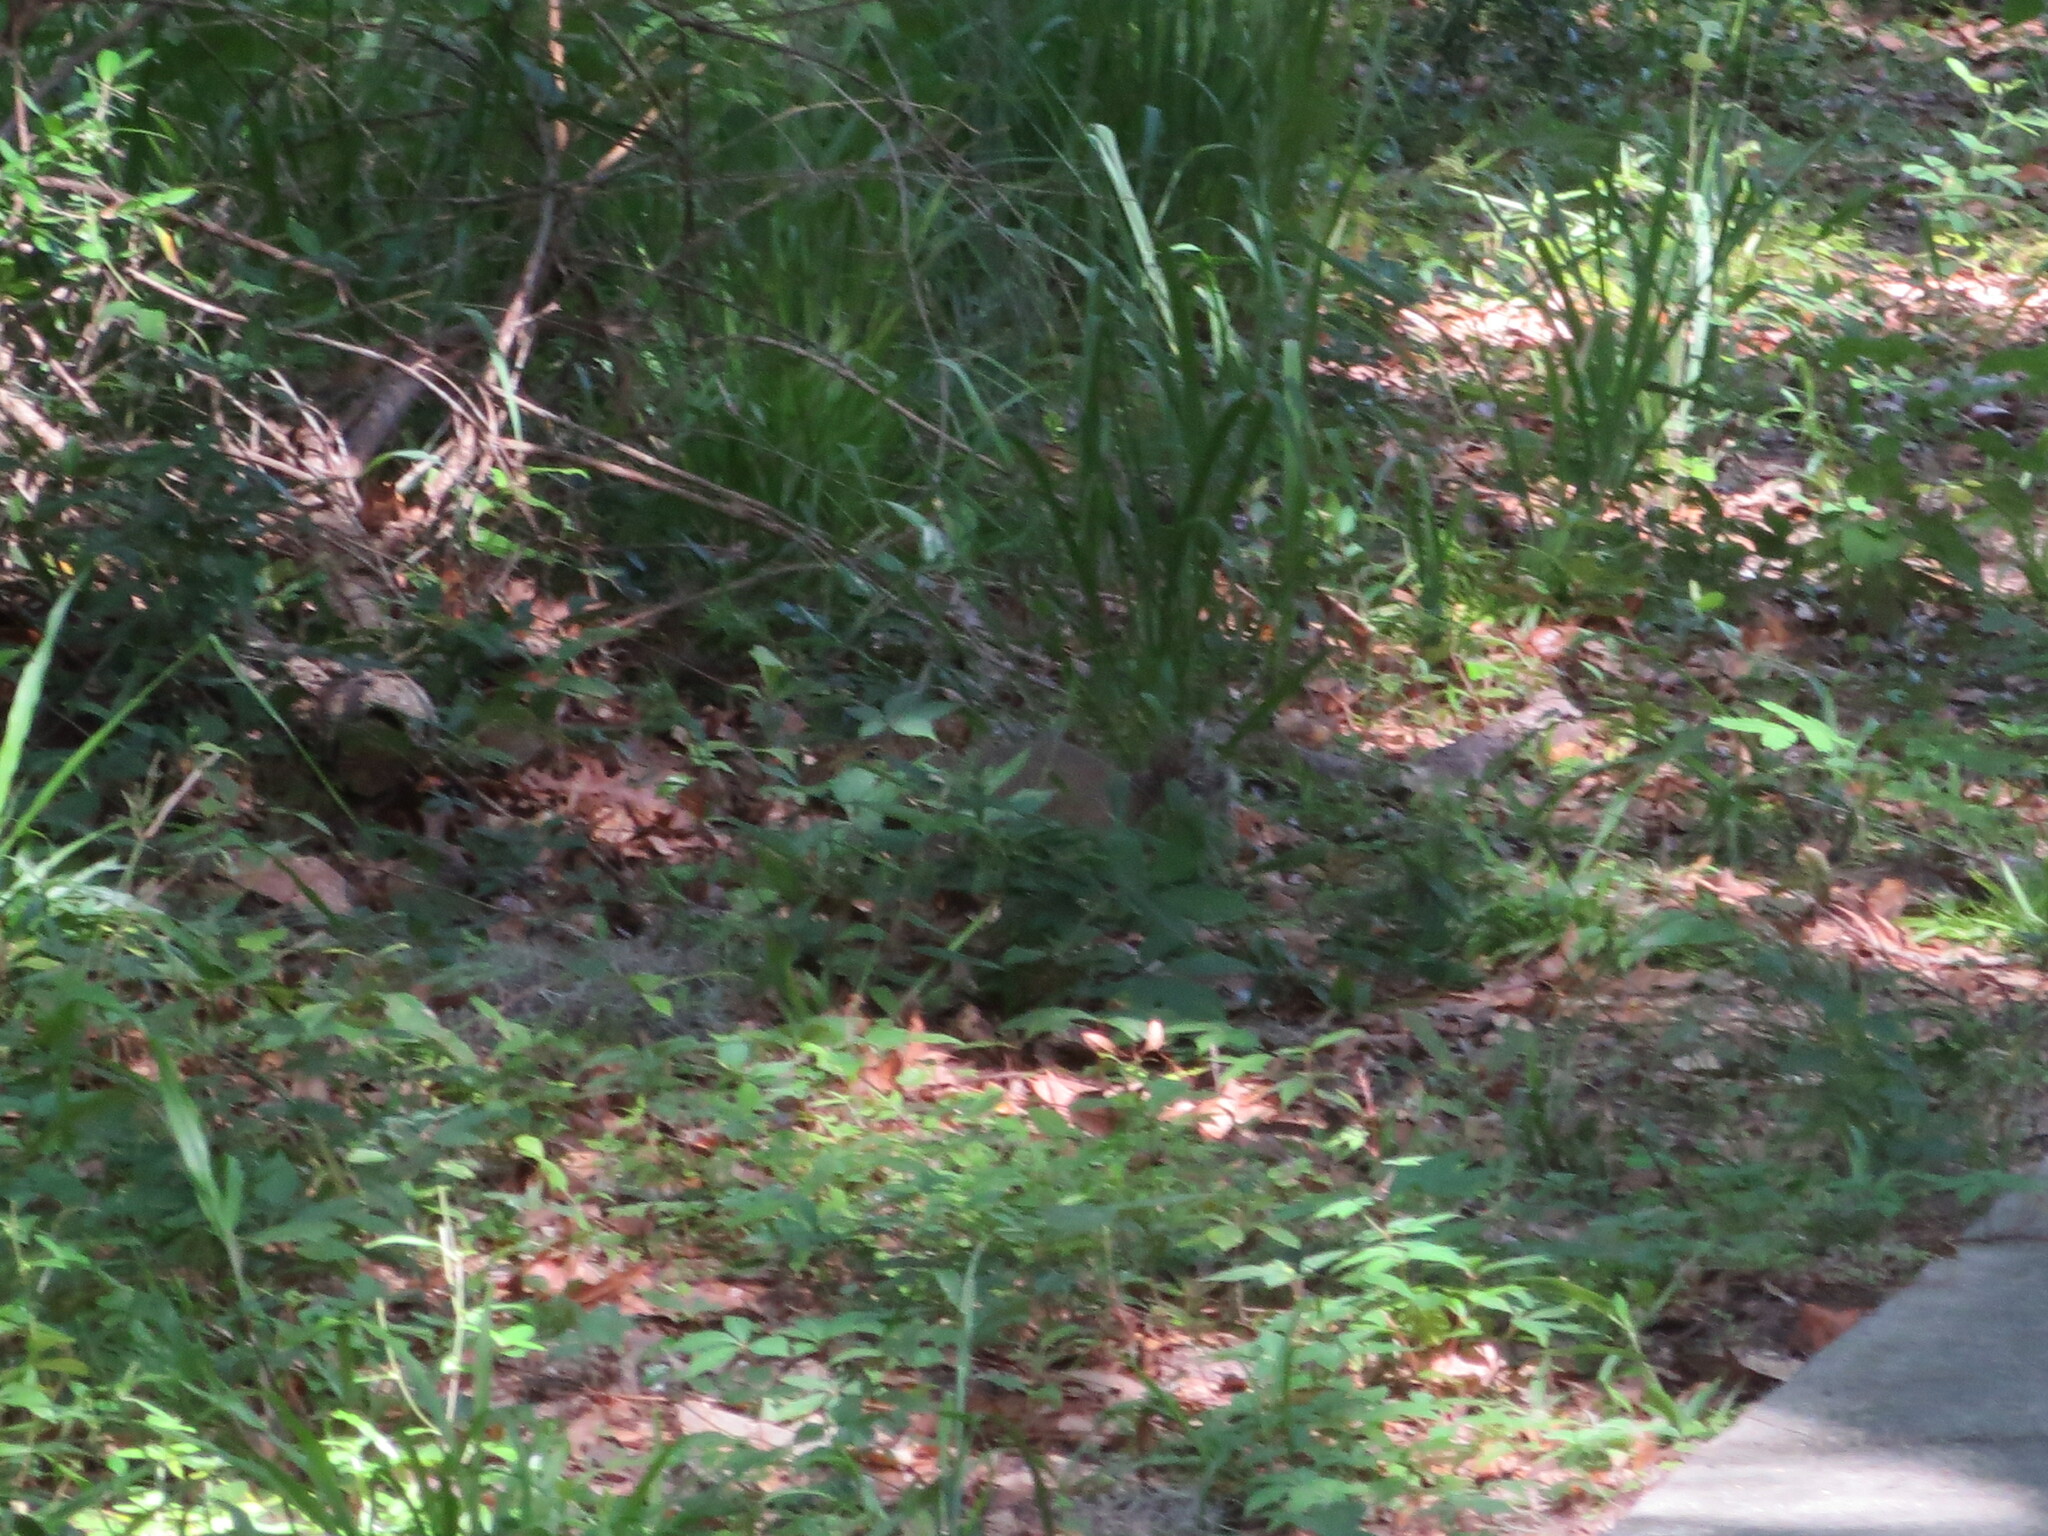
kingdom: Animalia
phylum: Chordata
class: Mammalia
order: Rodentia
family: Sciuridae
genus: Sciurus
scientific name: Sciurus carolinensis
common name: Eastern gray squirrel
